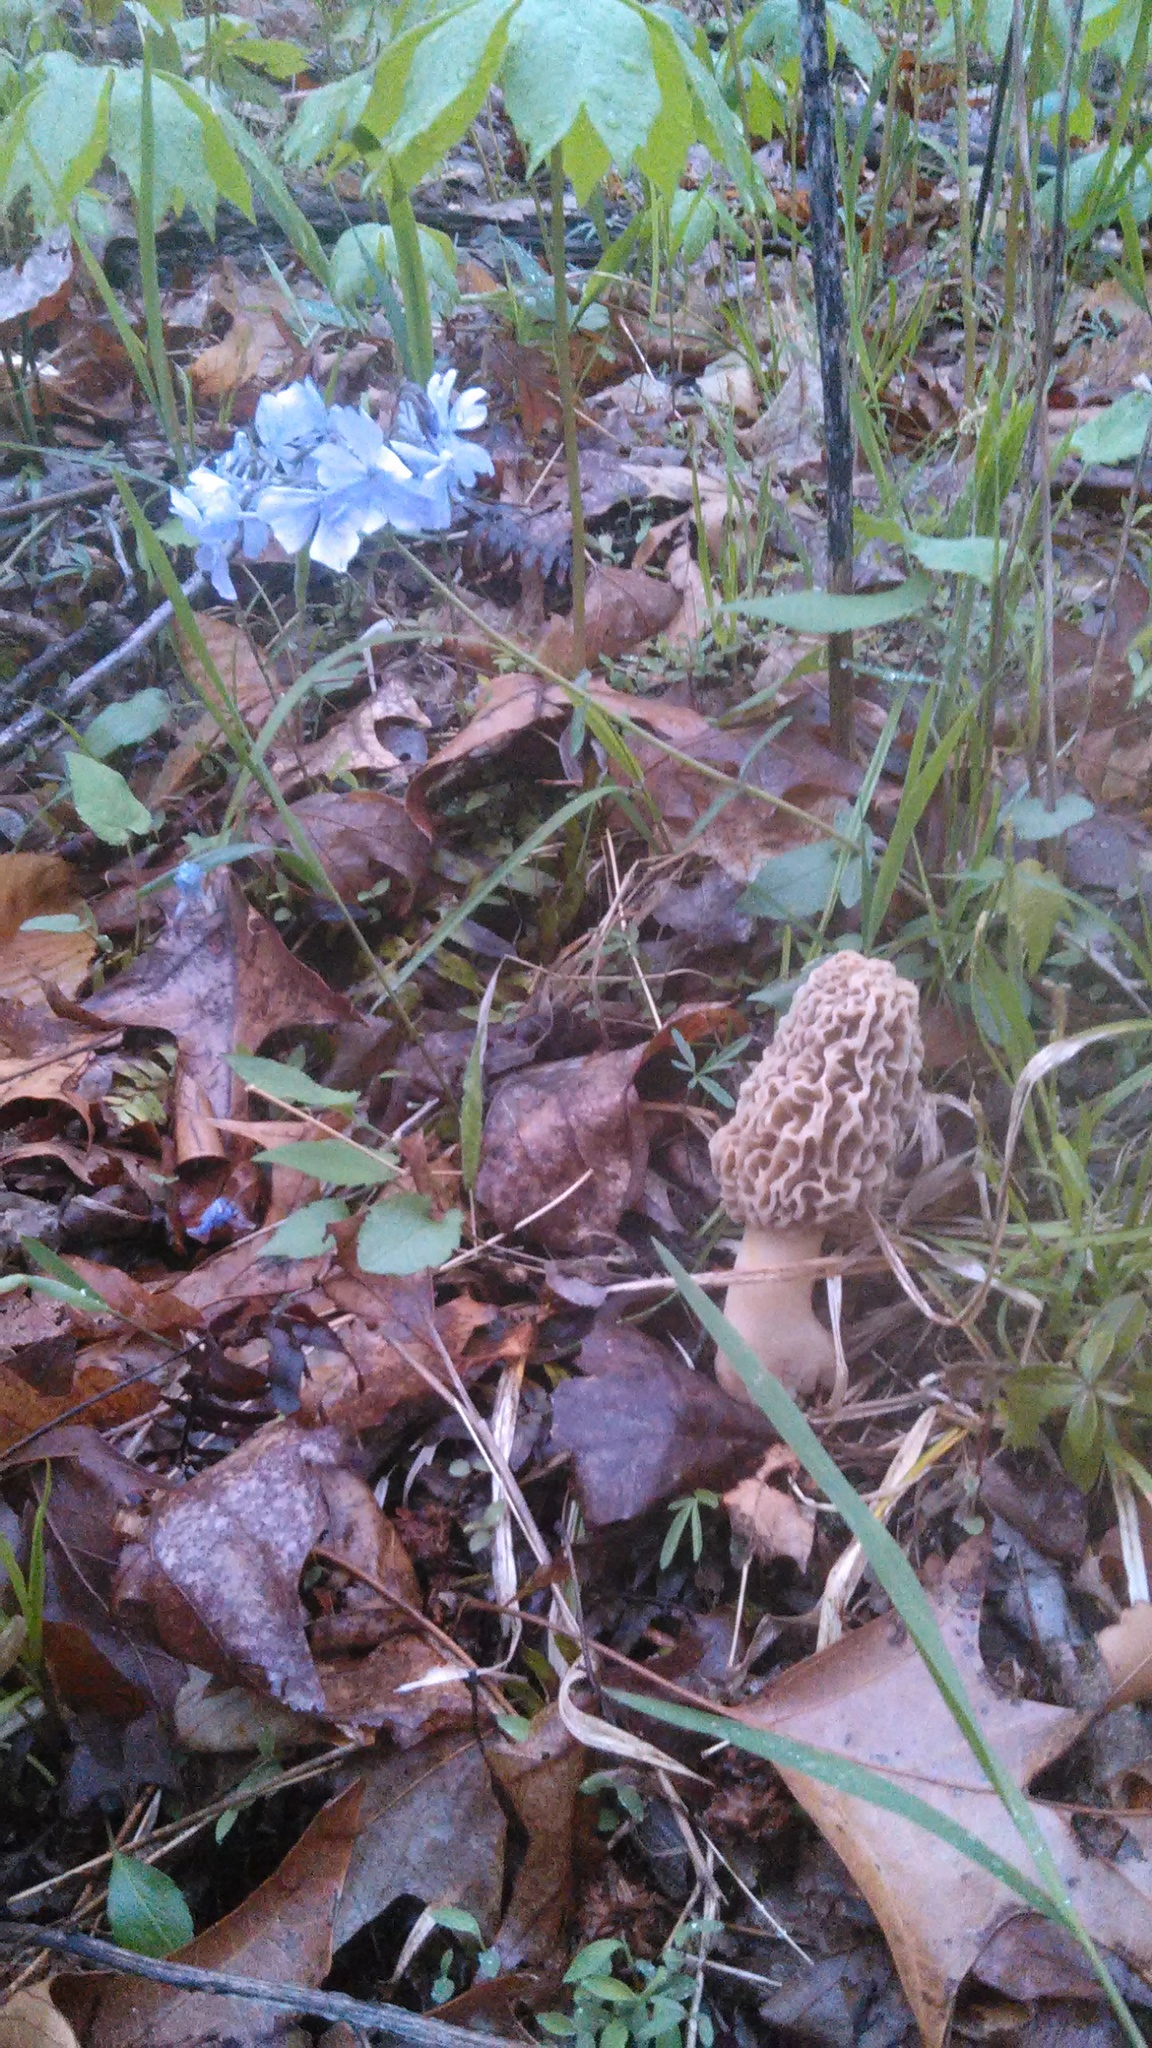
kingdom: Fungi
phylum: Ascomycota
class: Pezizomycetes
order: Pezizales
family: Morchellaceae
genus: Morchella
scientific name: Morchella americana
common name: White morel
